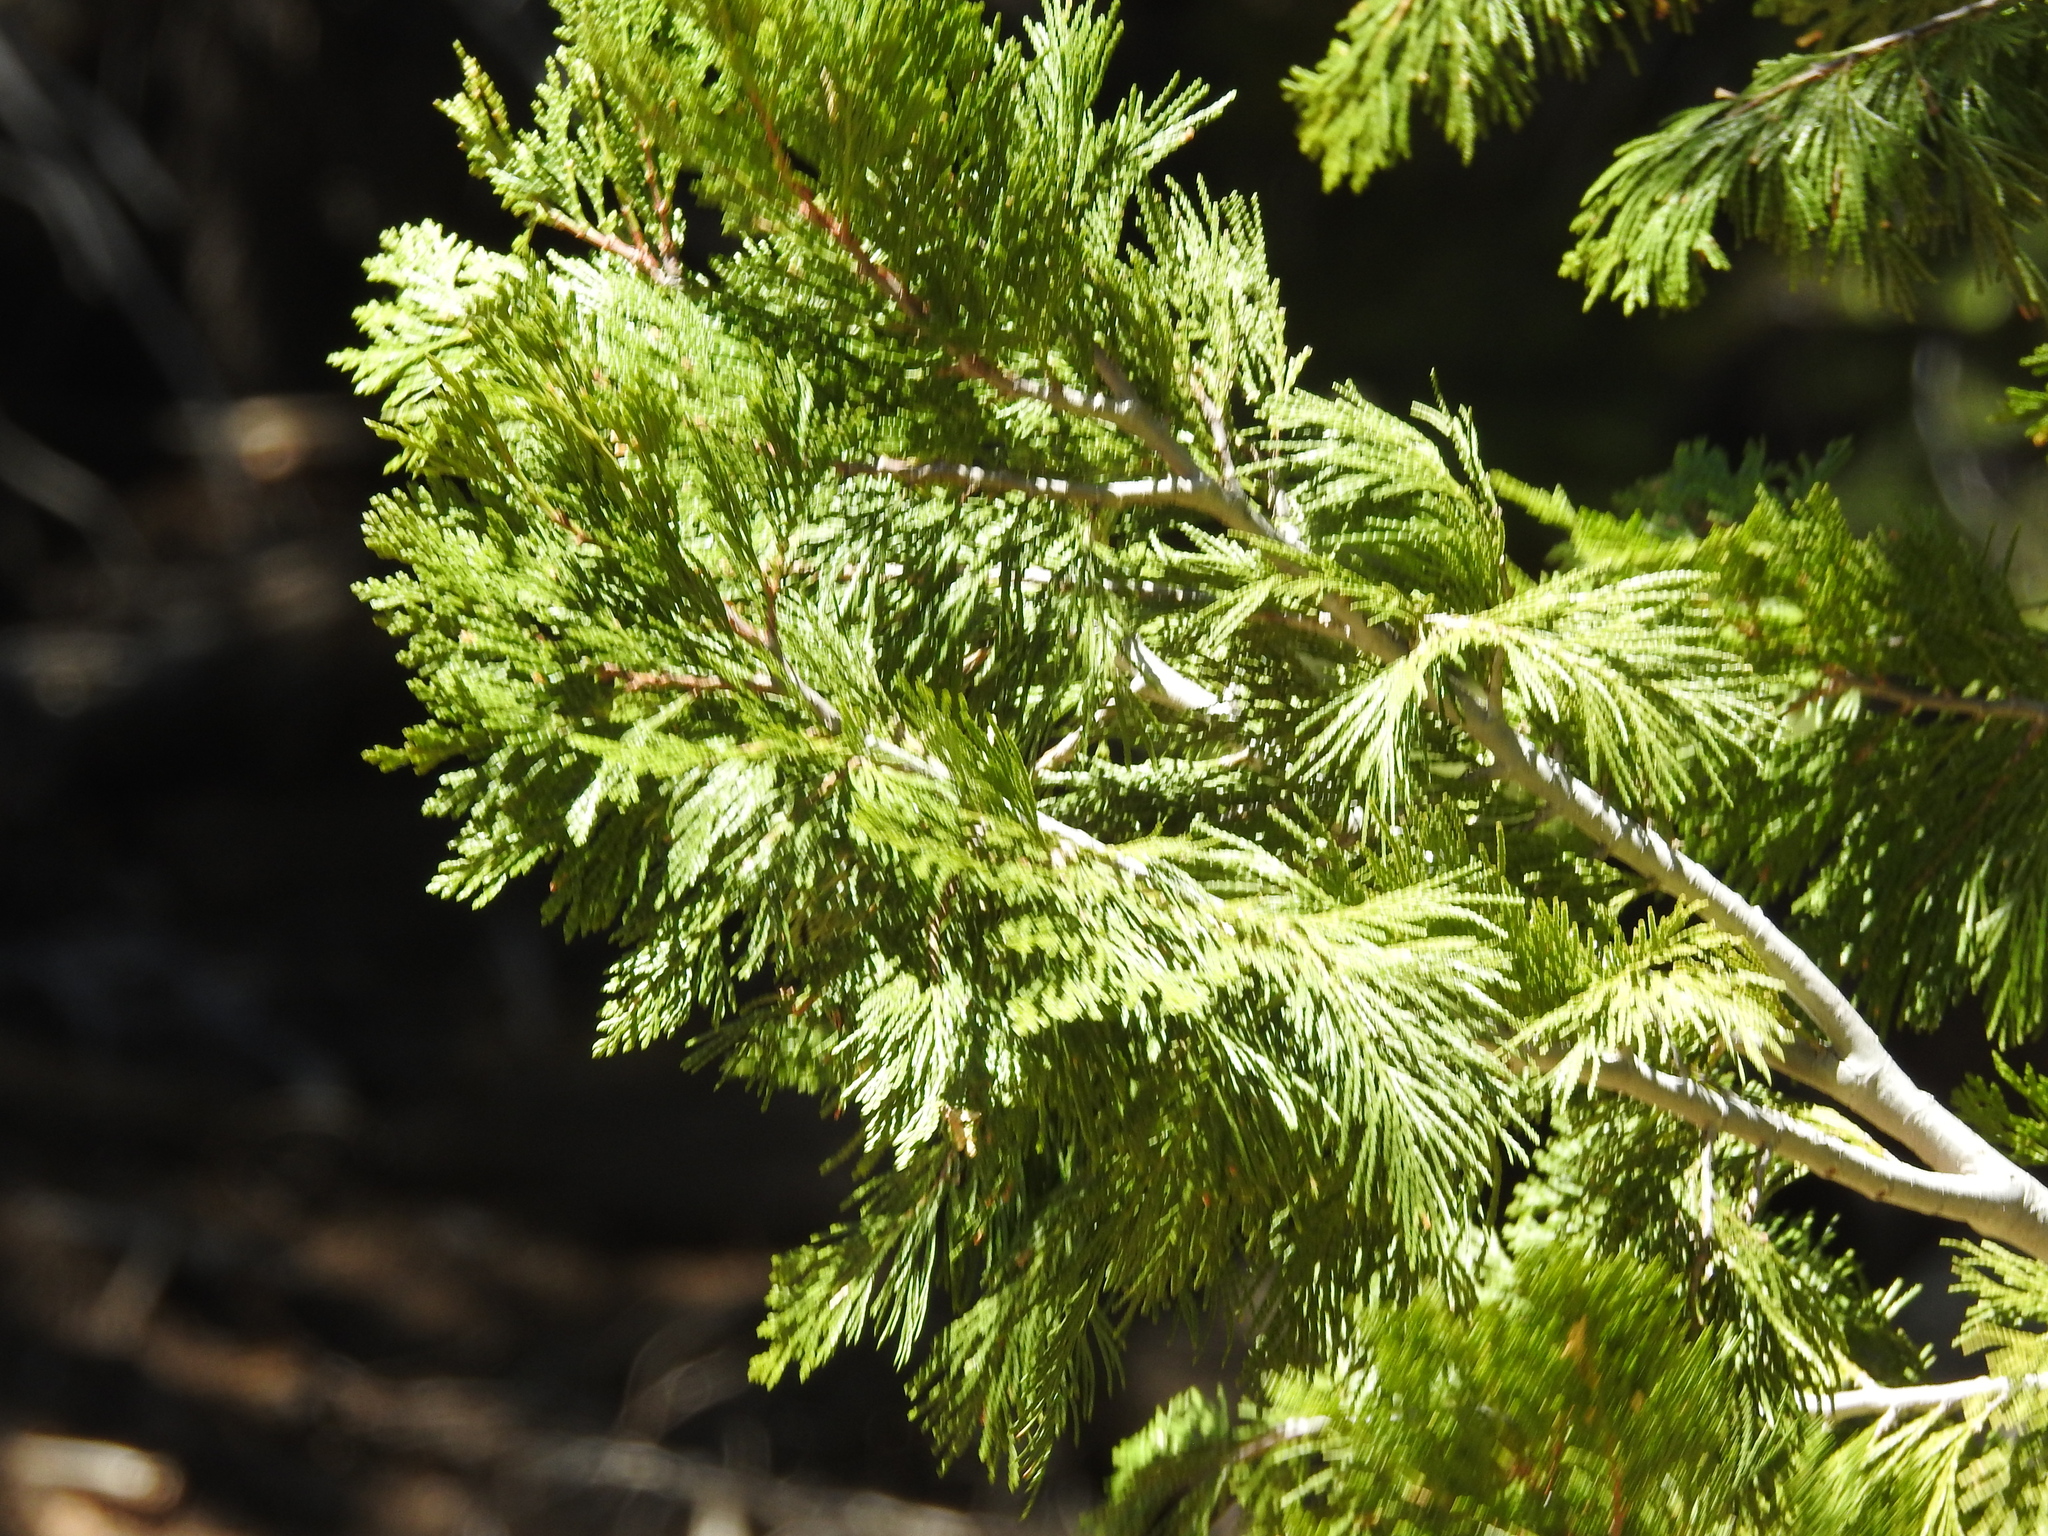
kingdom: Plantae
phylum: Tracheophyta
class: Pinopsida
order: Pinales
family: Cupressaceae
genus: Calocedrus
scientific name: Calocedrus decurrens
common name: Californian incense-cedar
